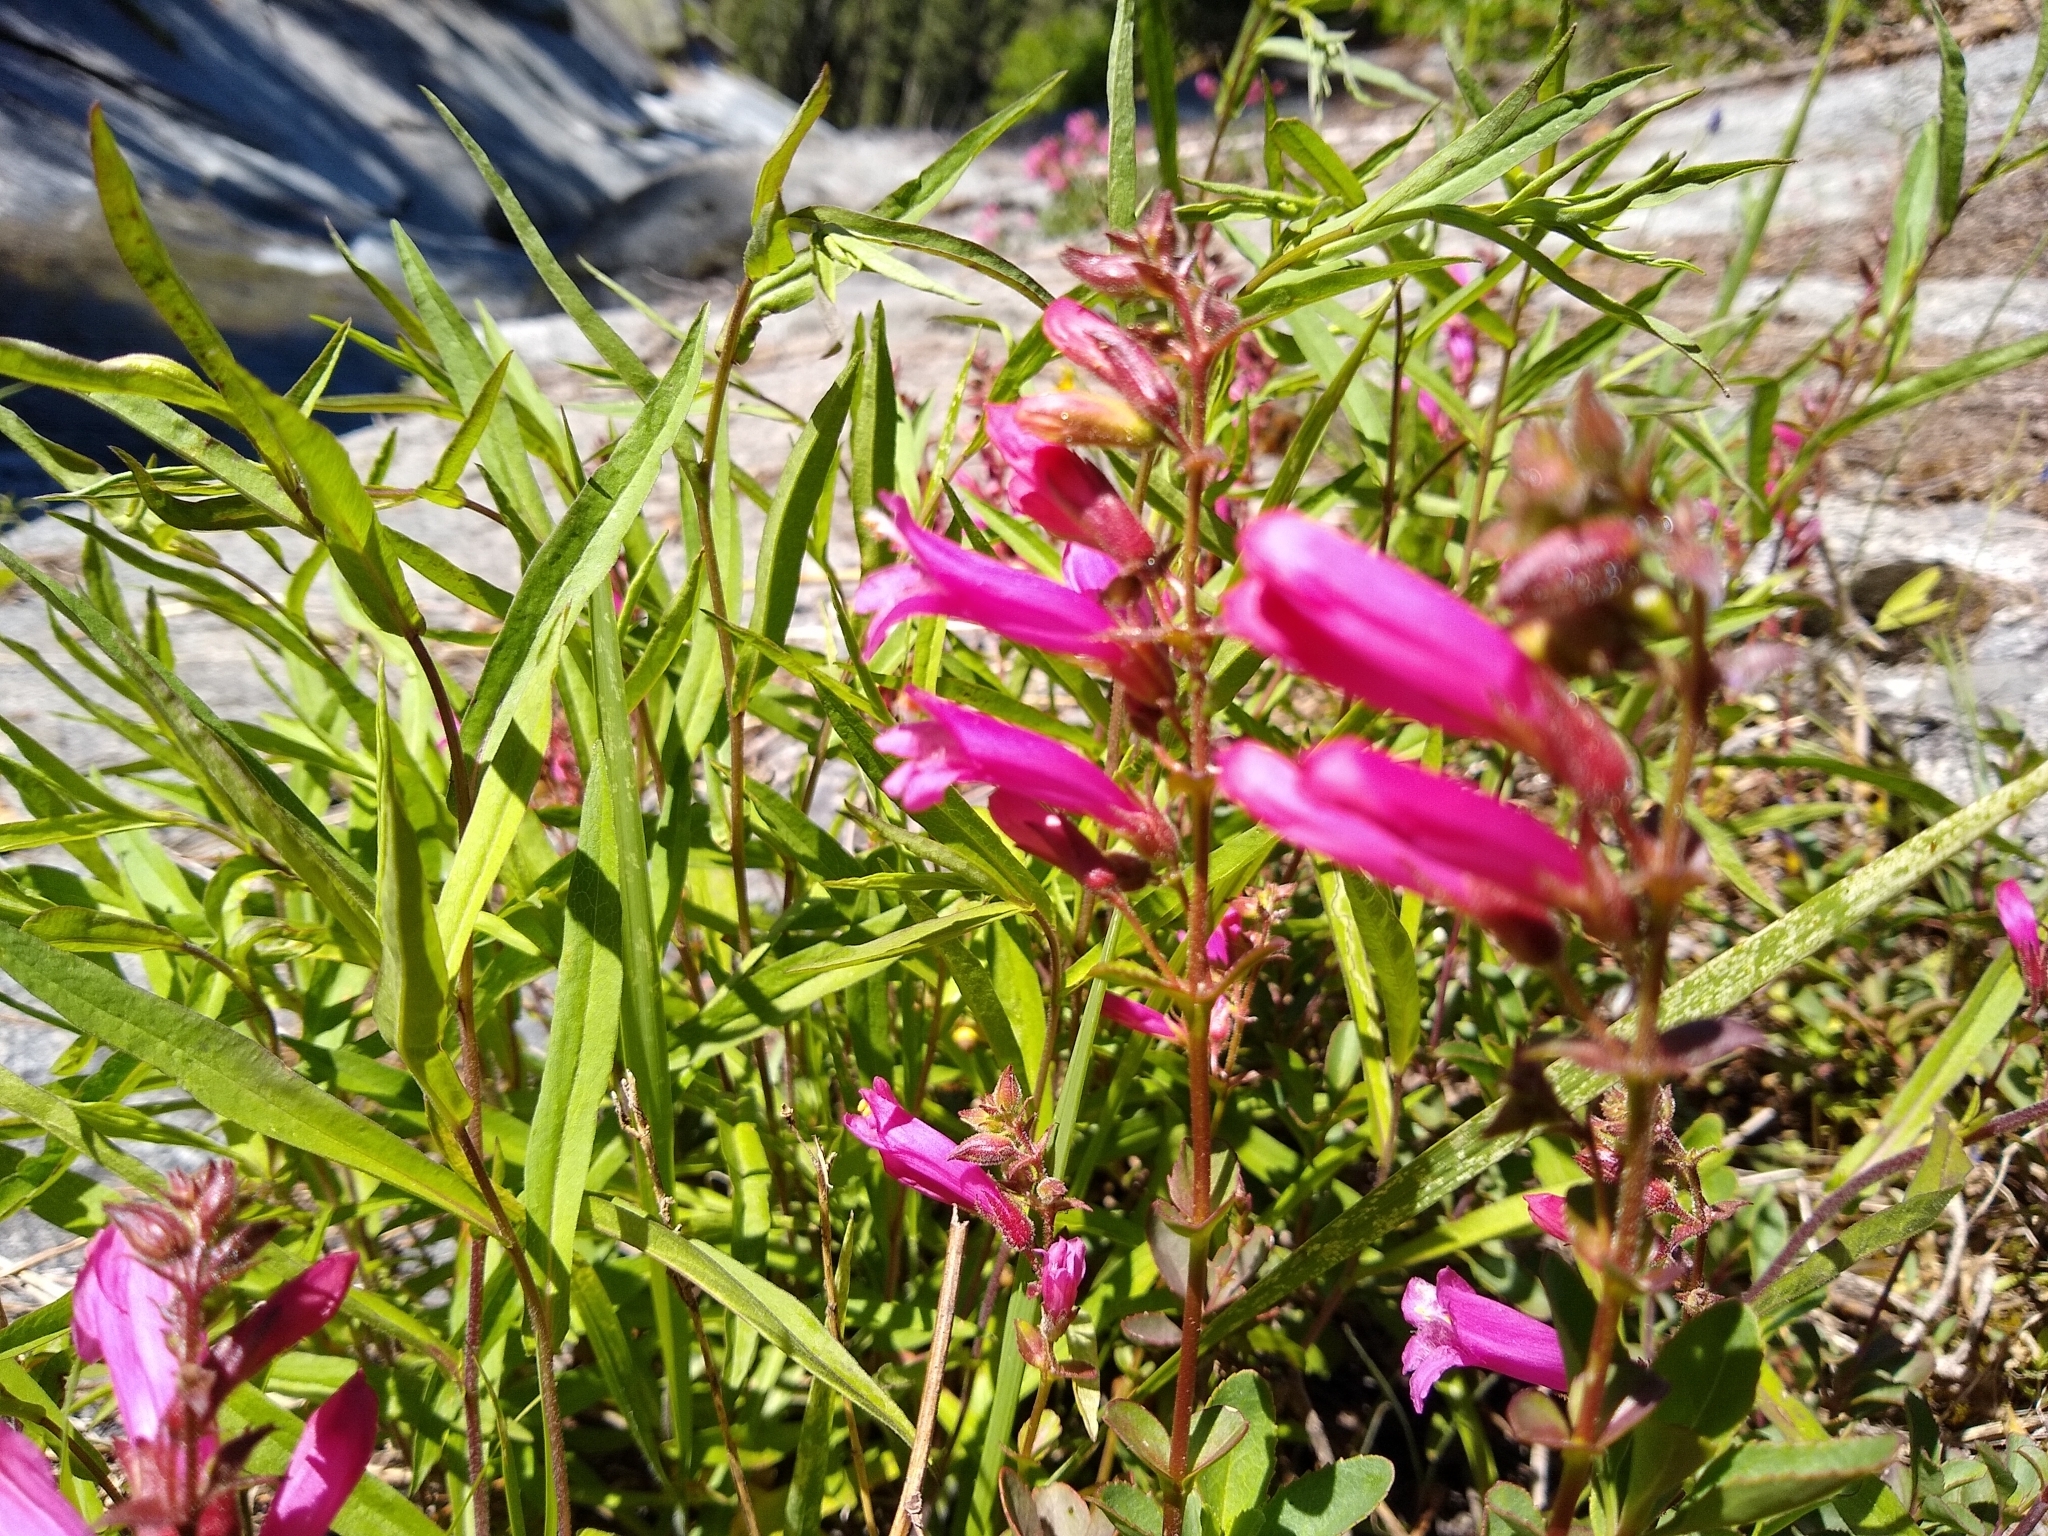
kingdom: Plantae
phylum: Tracheophyta
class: Magnoliopsida
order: Lamiales
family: Plantaginaceae
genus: Penstemon
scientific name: Penstemon newberryi
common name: Mountain-pride
